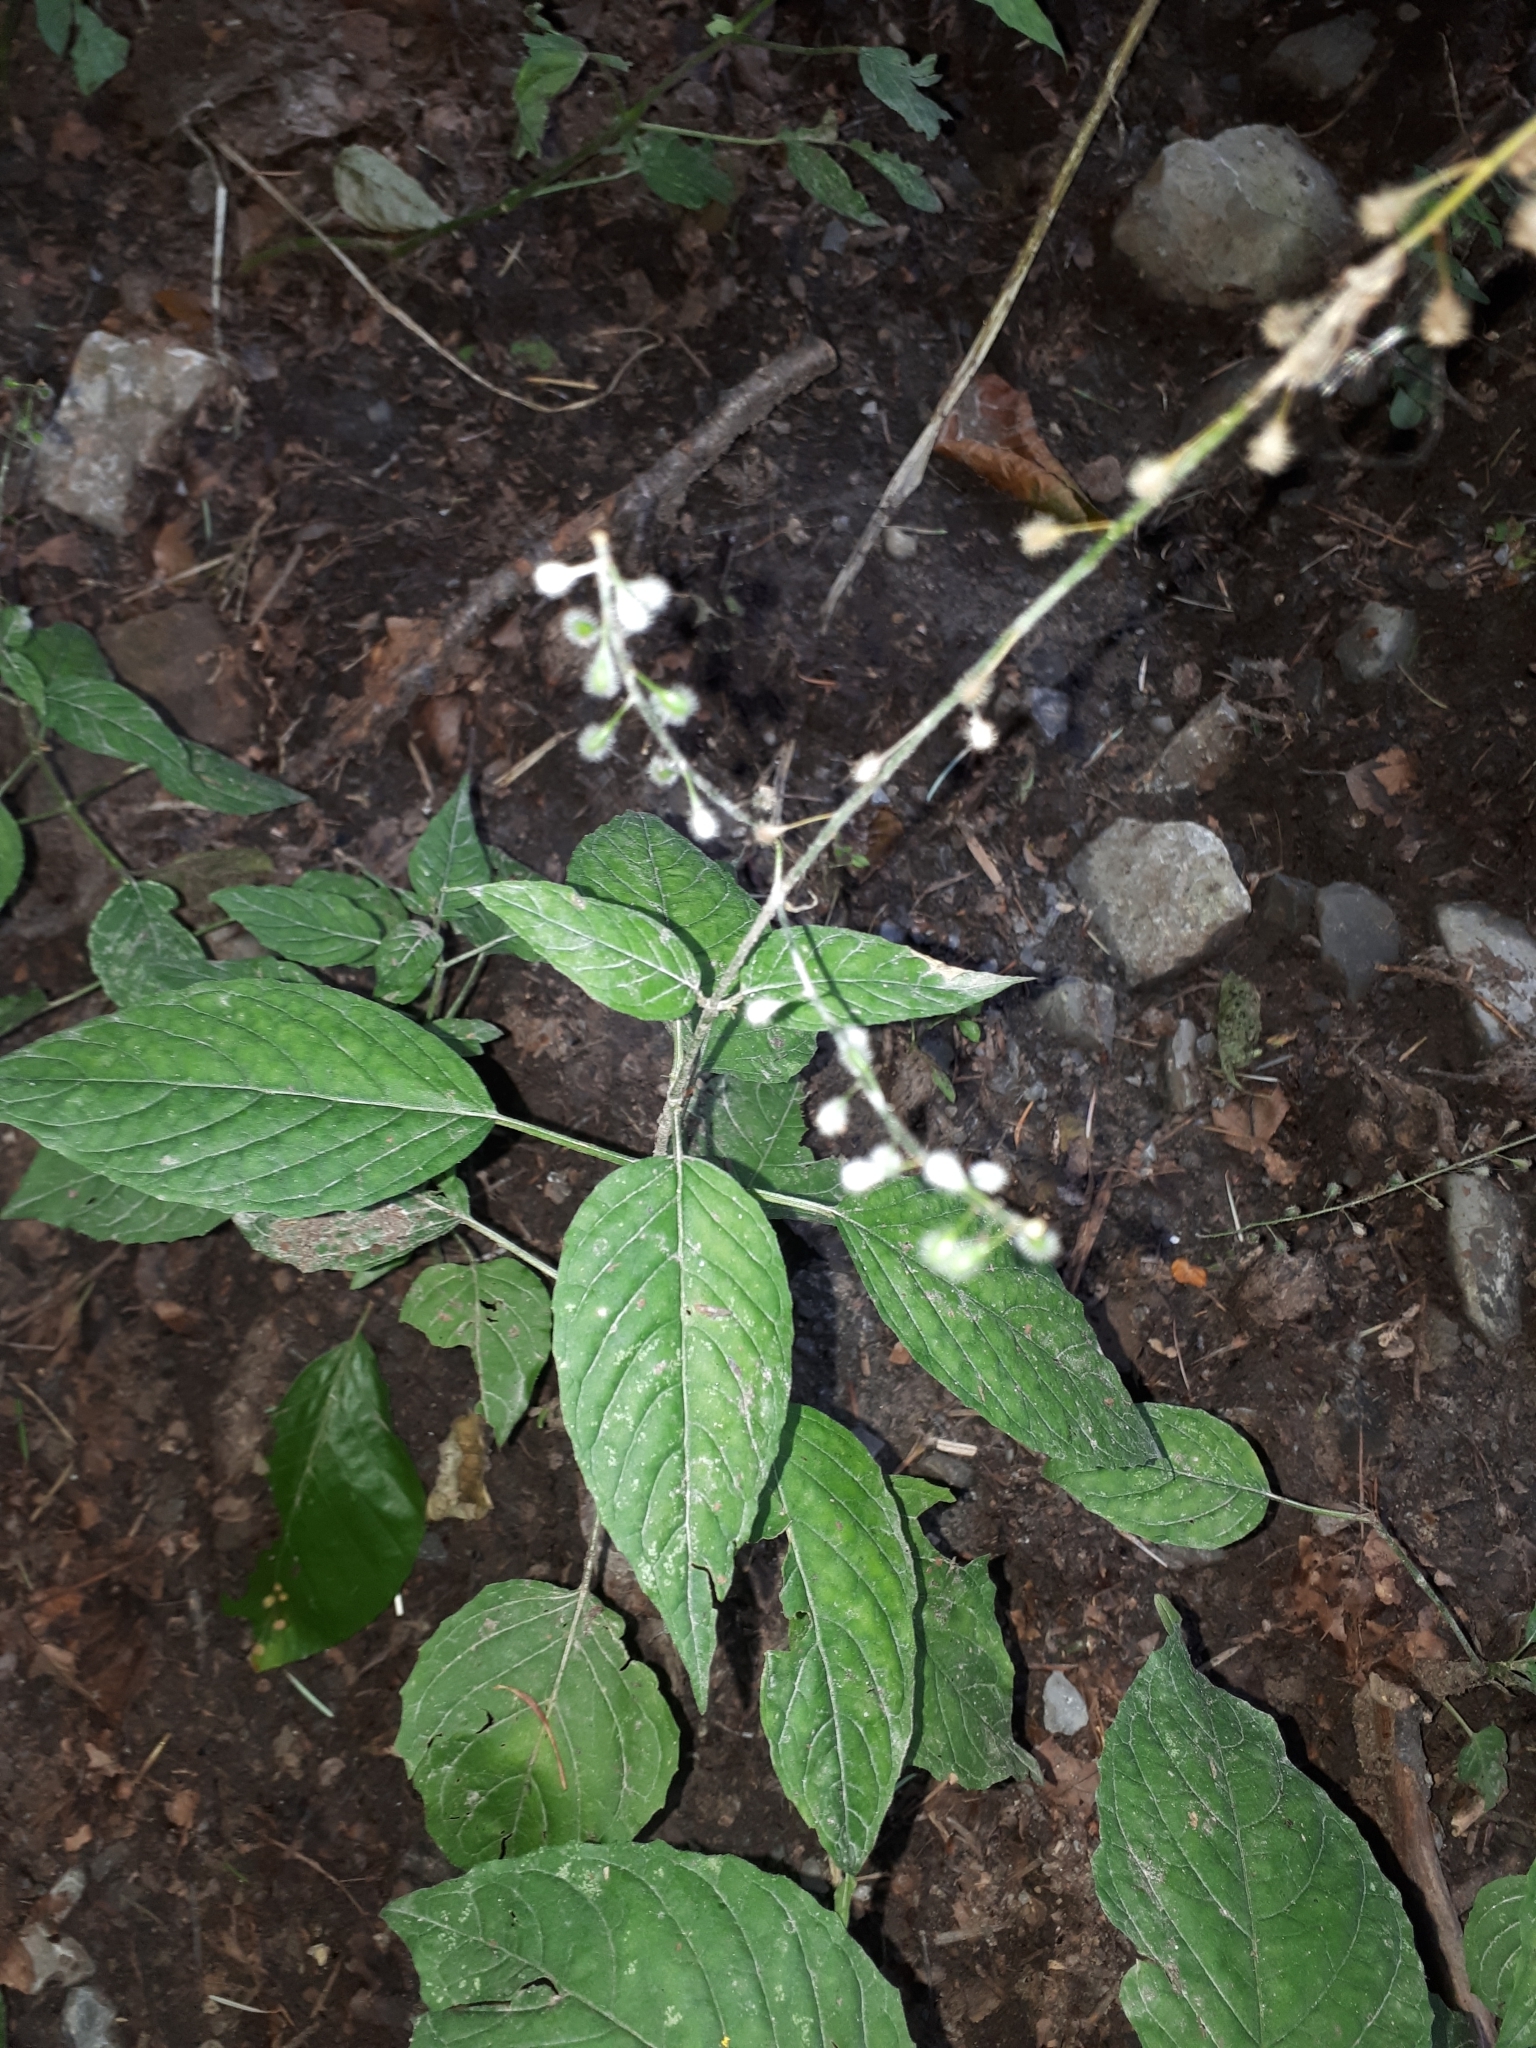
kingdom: Plantae
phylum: Tracheophyta
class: Magnoliopsida
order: Myrtales
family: Onagraceae
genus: Circaea
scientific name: Circaea lutetiana
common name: Enchanter's-nightshade
